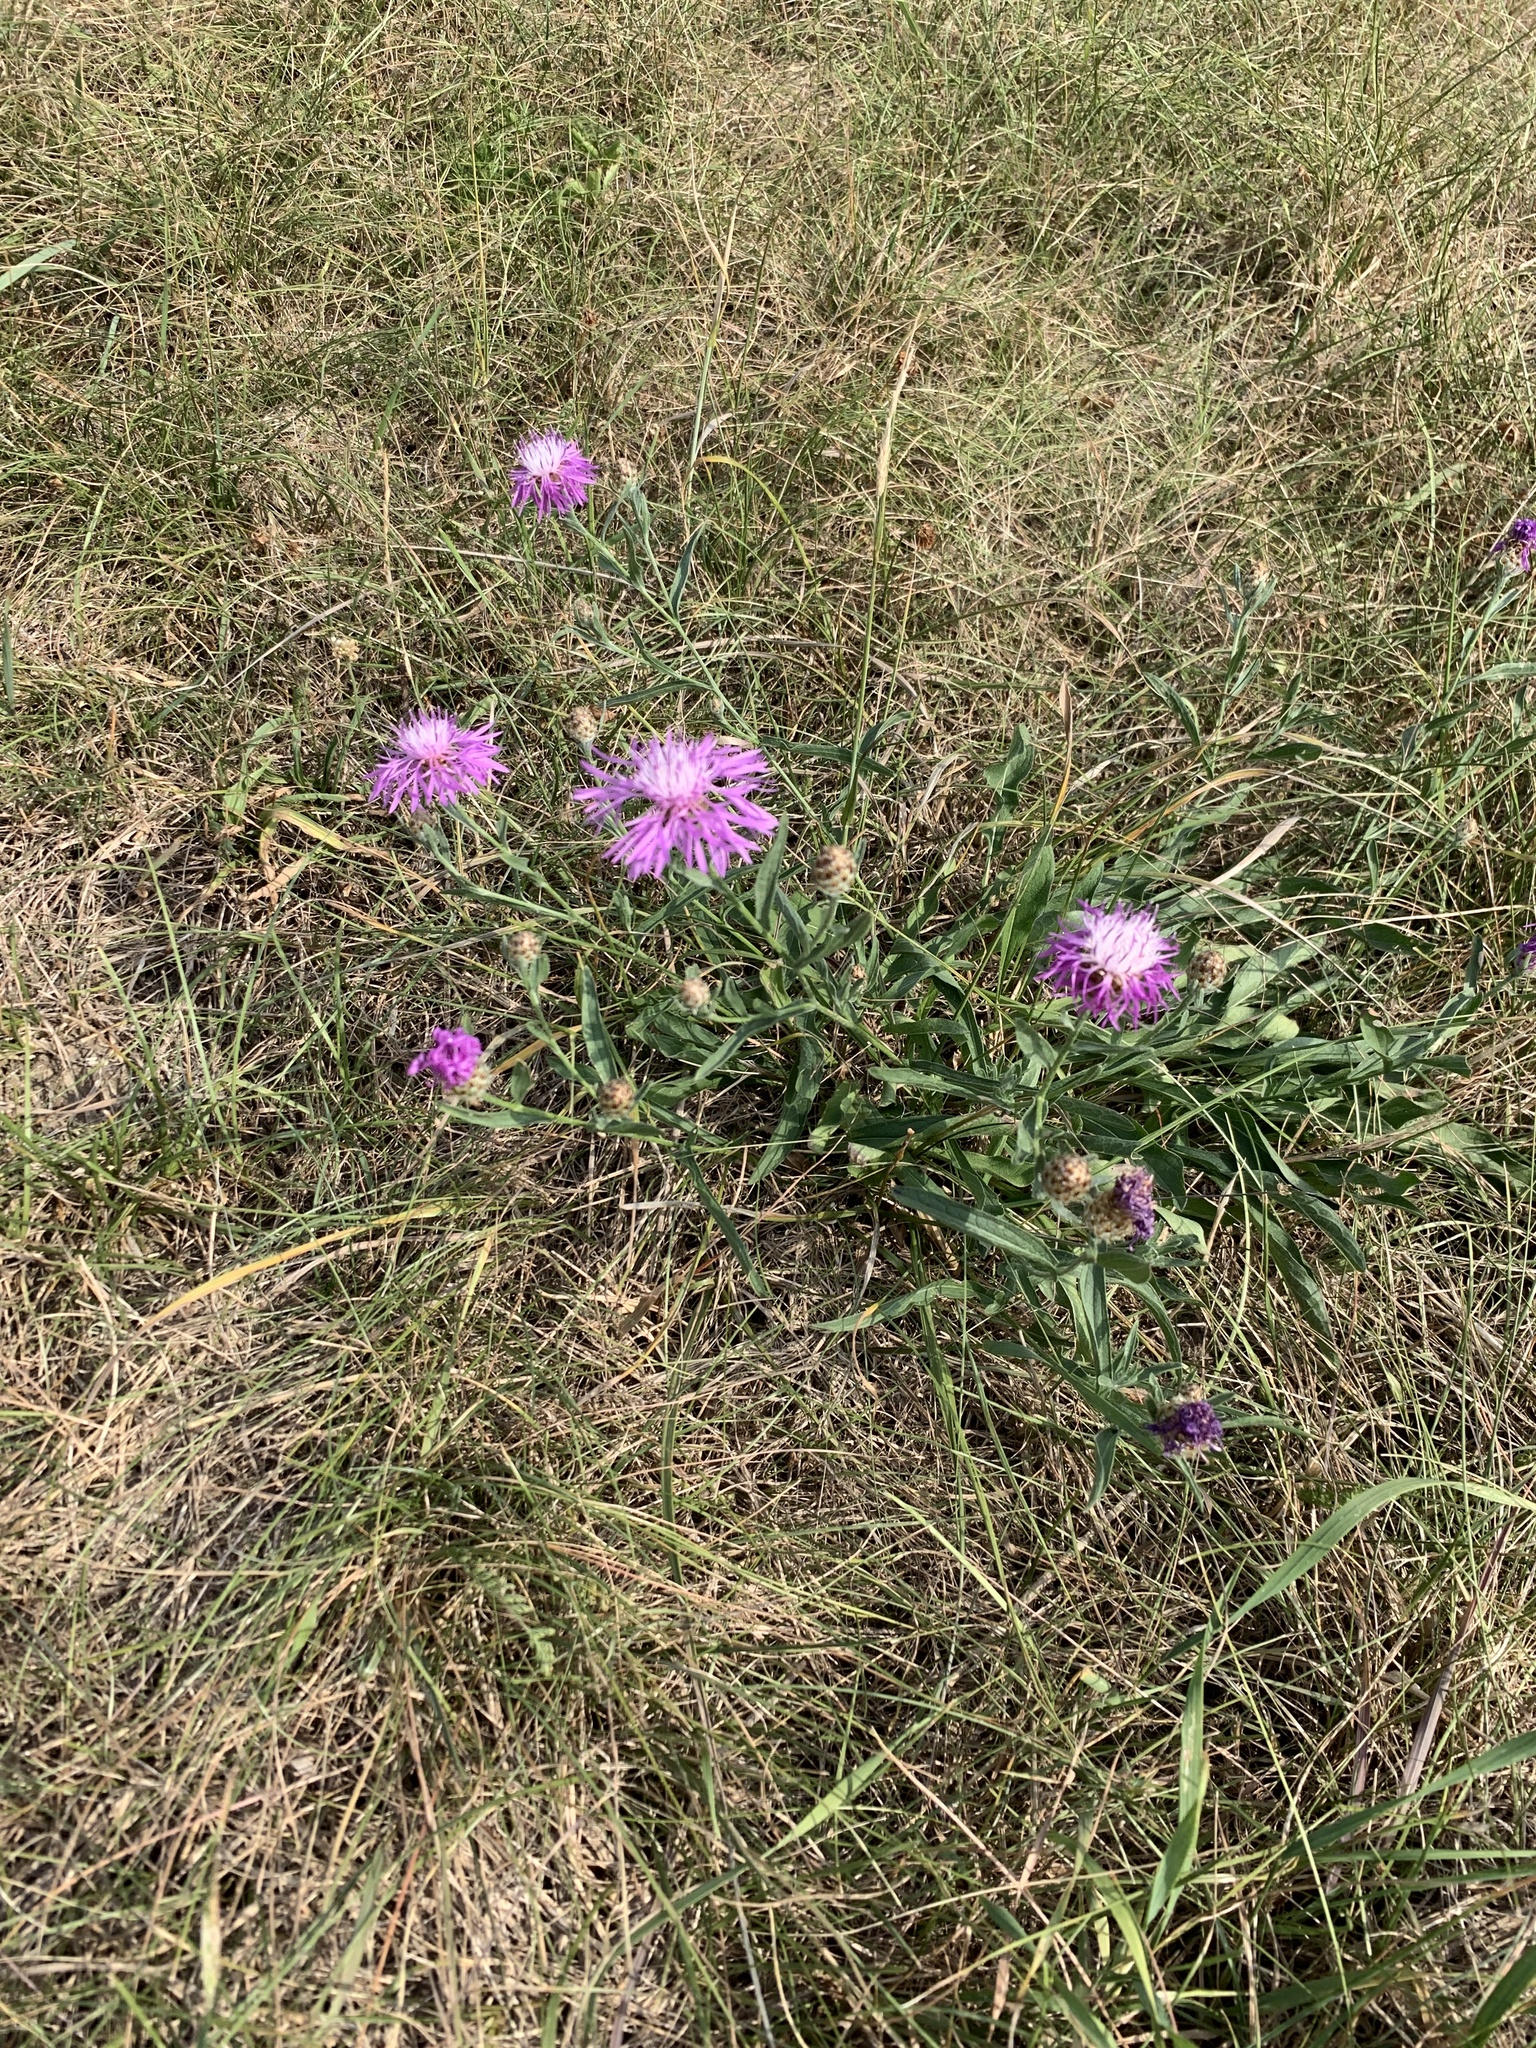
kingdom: Plantae
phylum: Tracheophyta
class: Magnoliopsida
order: Asterales
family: Asteraceae
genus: Centaurea
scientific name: Centaurea jacea
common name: Brown knapweed
